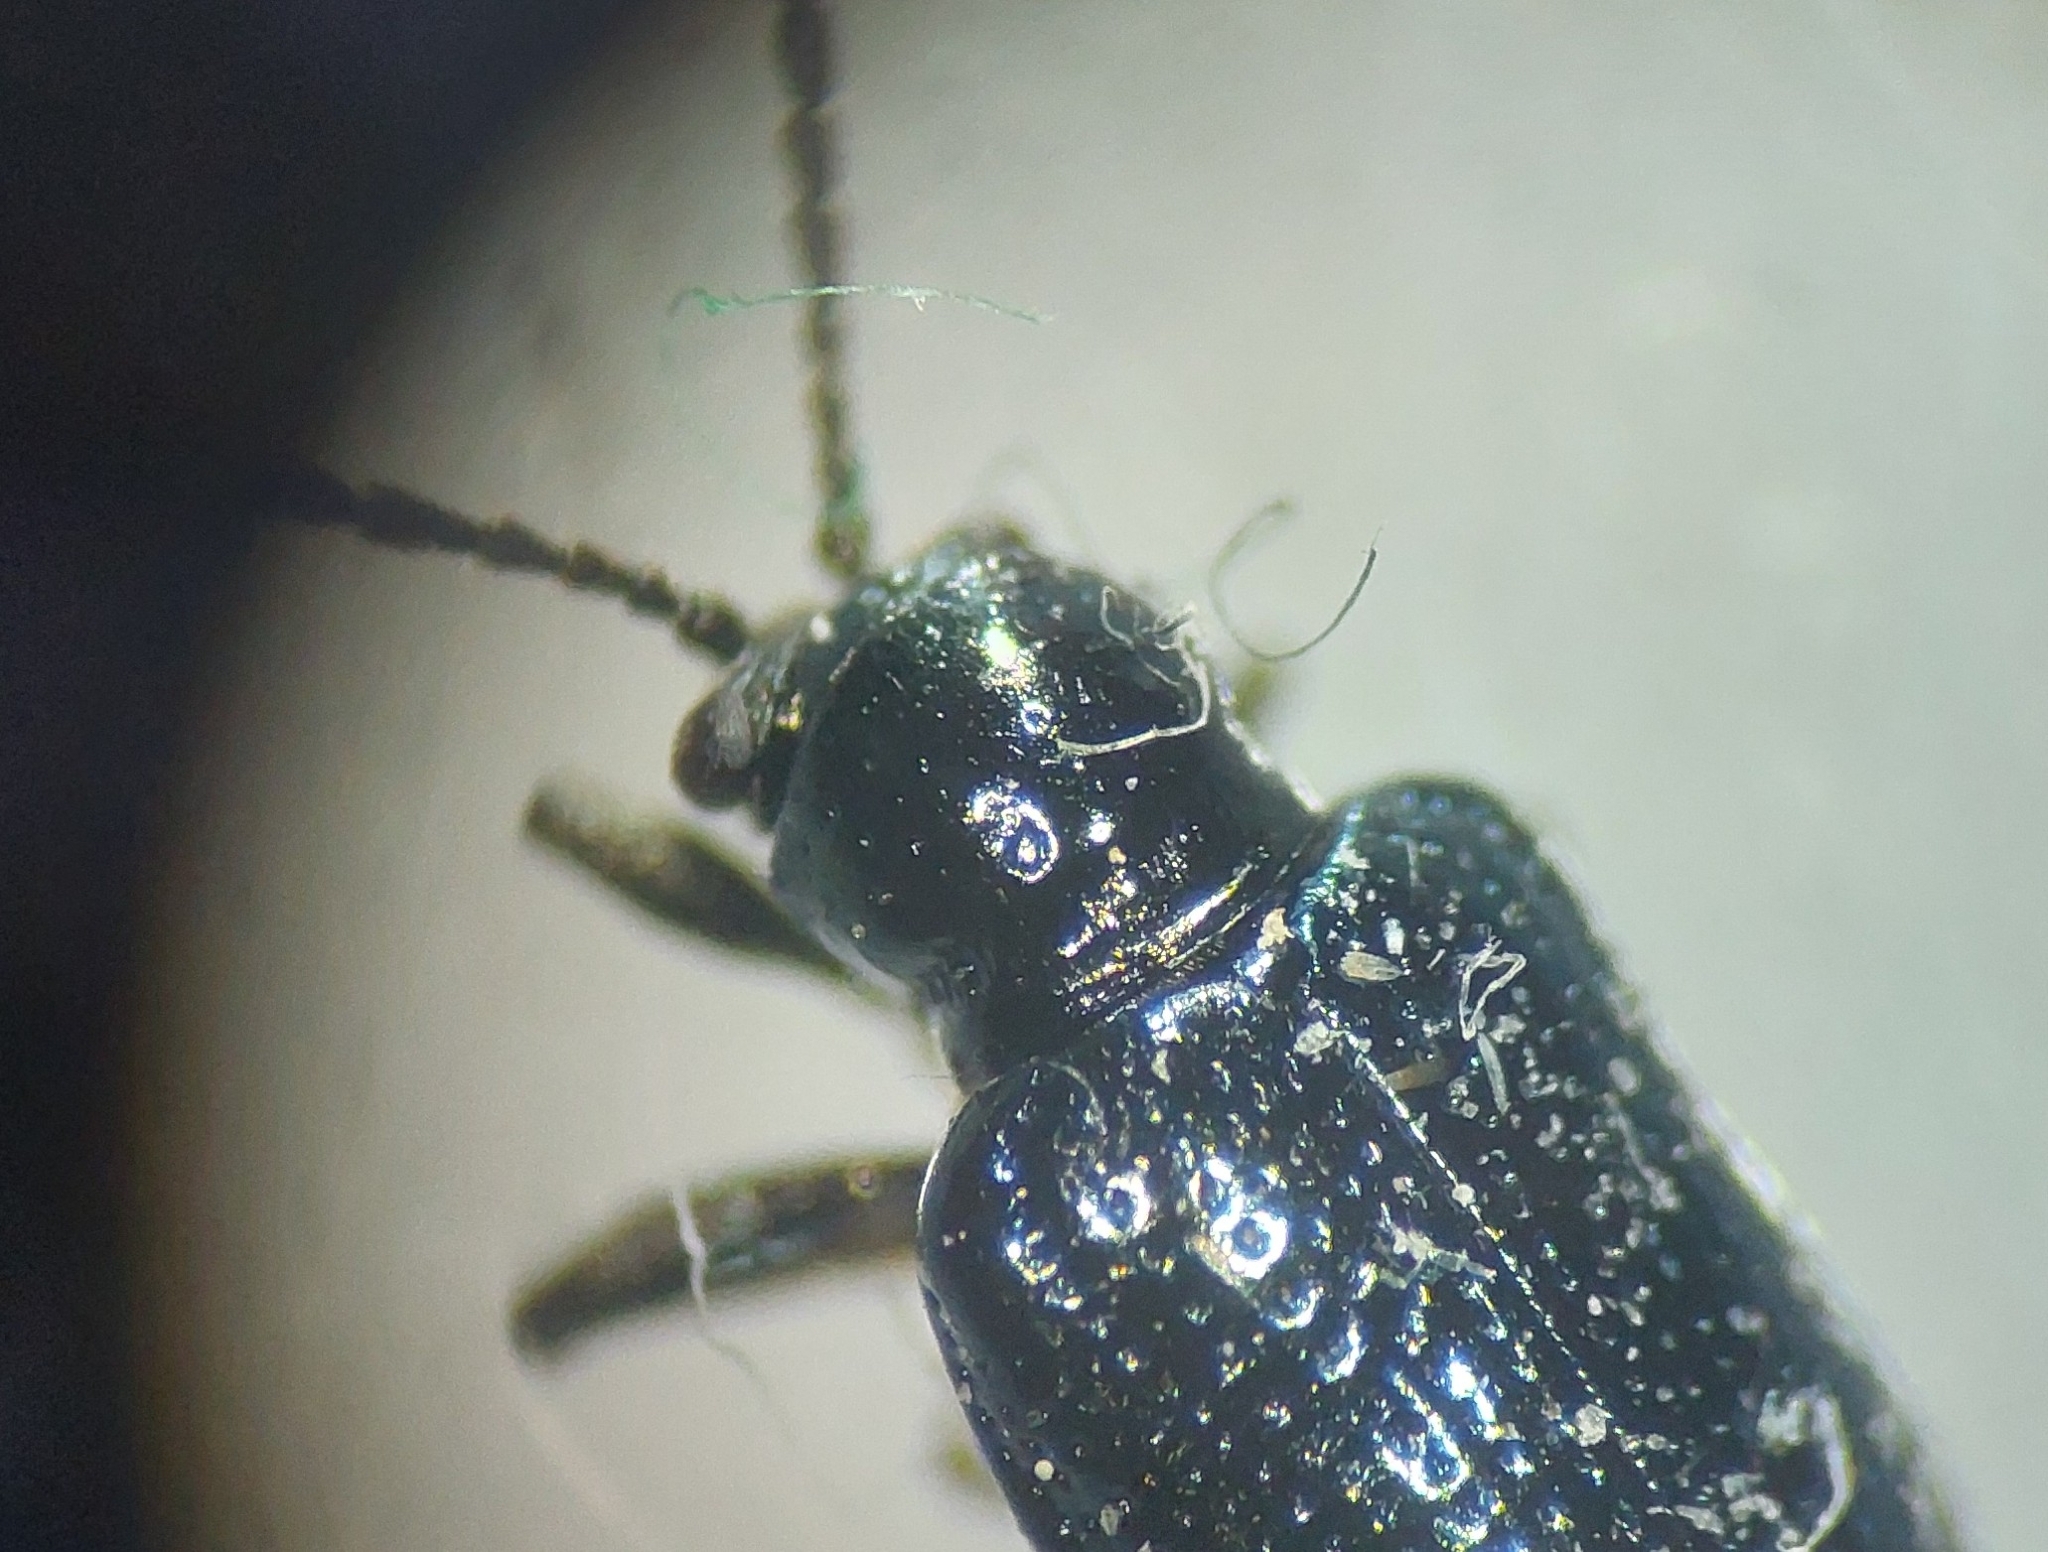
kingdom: Animalia
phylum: Arthropoda
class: Insecta
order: Coleoptera
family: Chrysomelidae
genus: Oulema
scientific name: Oulema gallaeciana
